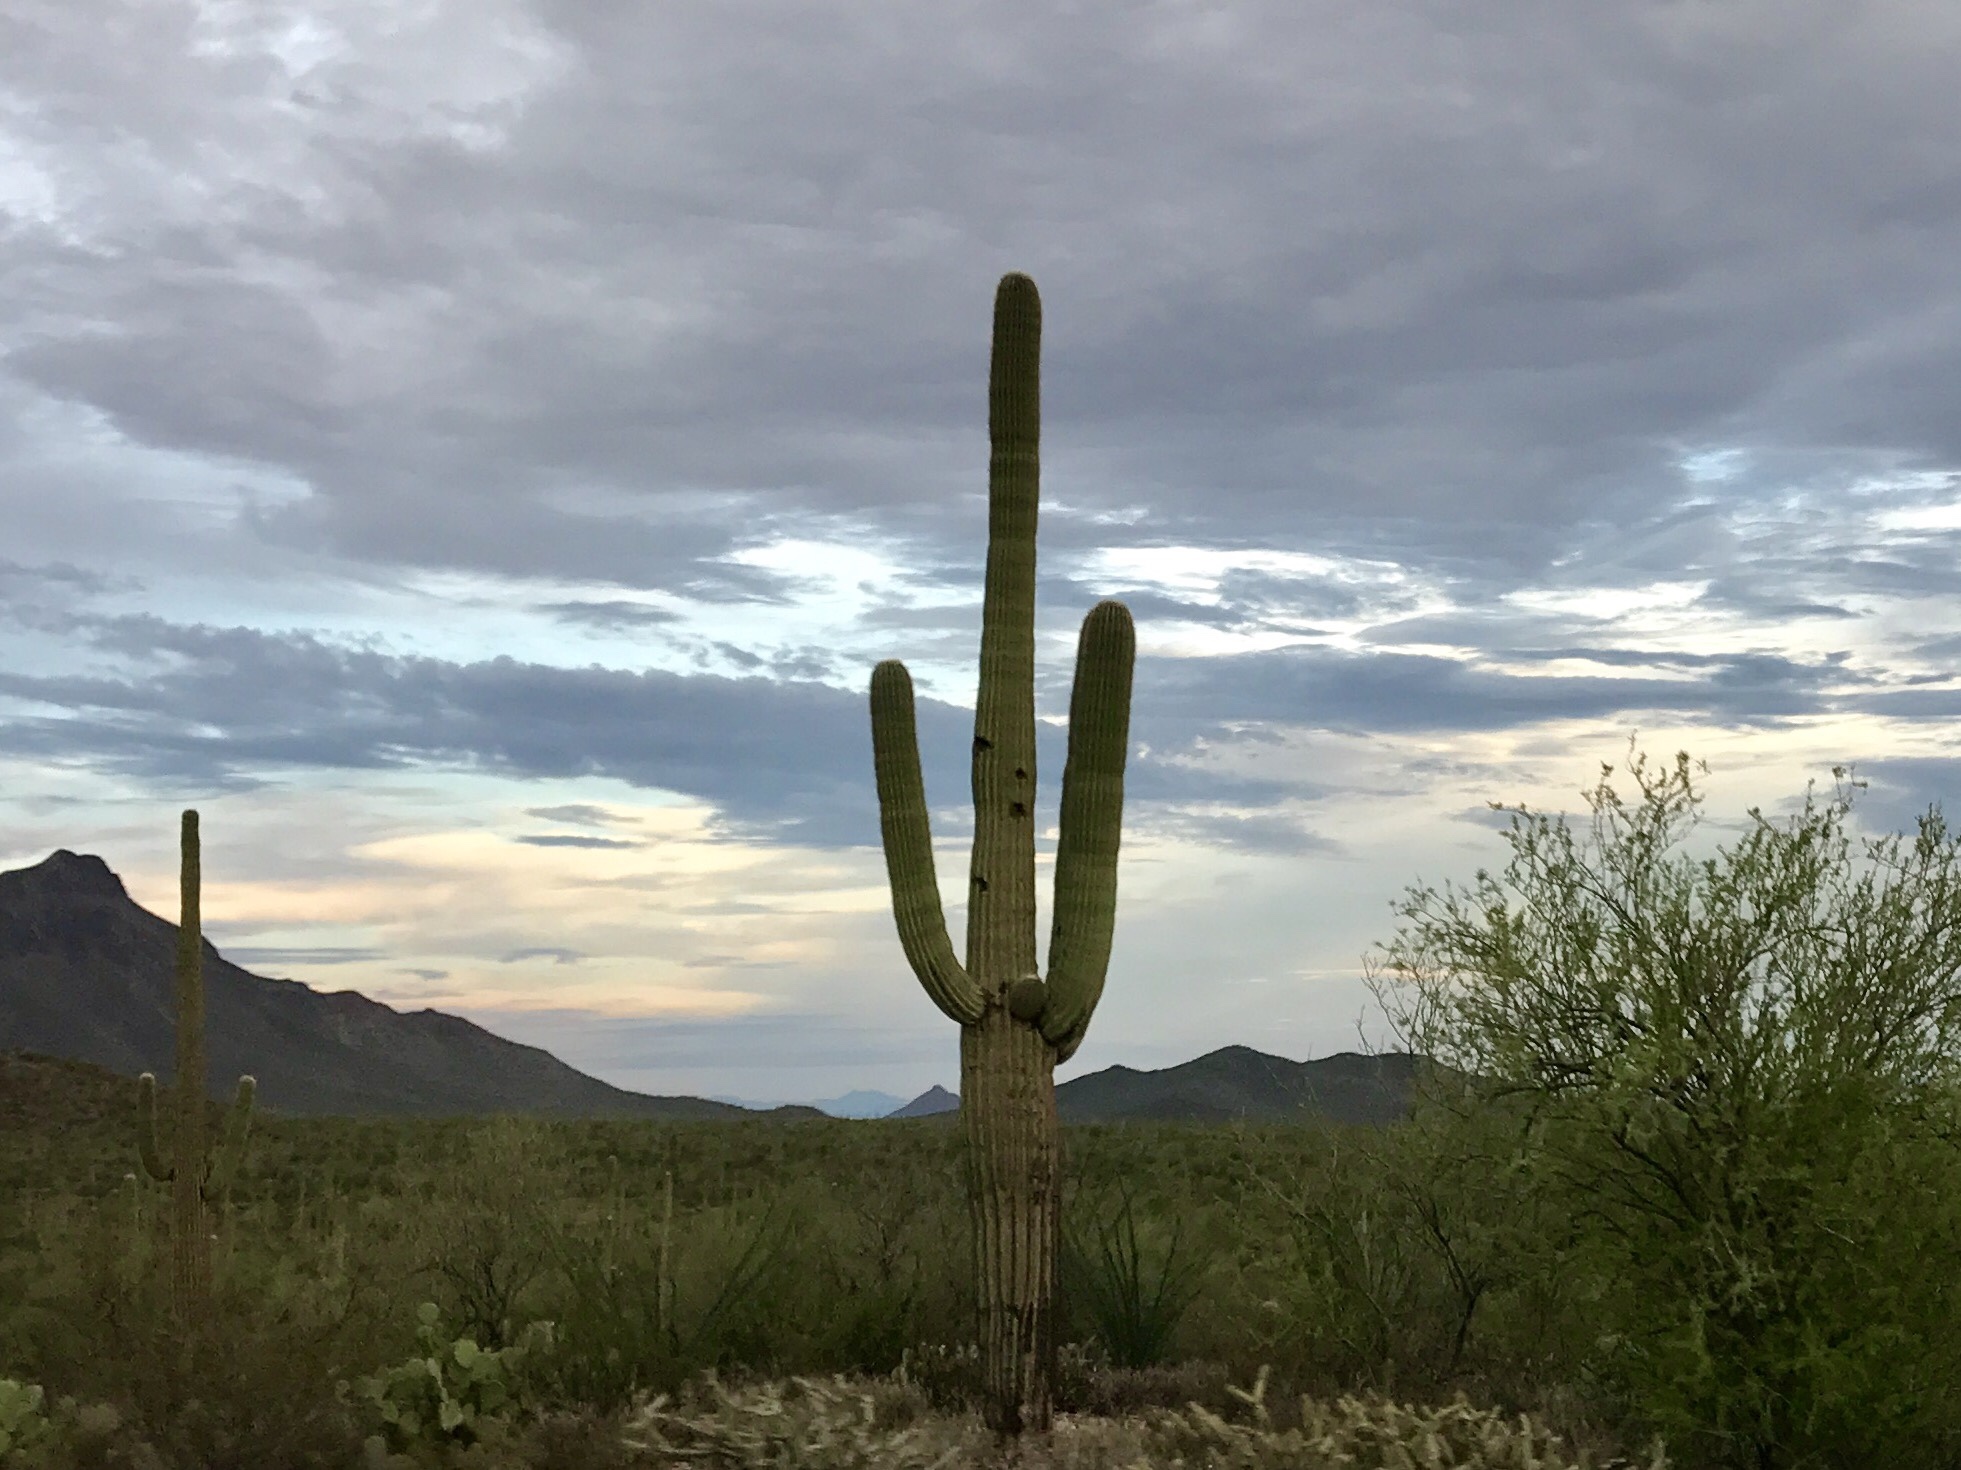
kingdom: Plantae
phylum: Tracheophyta
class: Magnoliopsida
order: Caryophyllales
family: Cactaceae
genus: Carnegiea
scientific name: Carnegiea gigantea
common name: Saguaro
